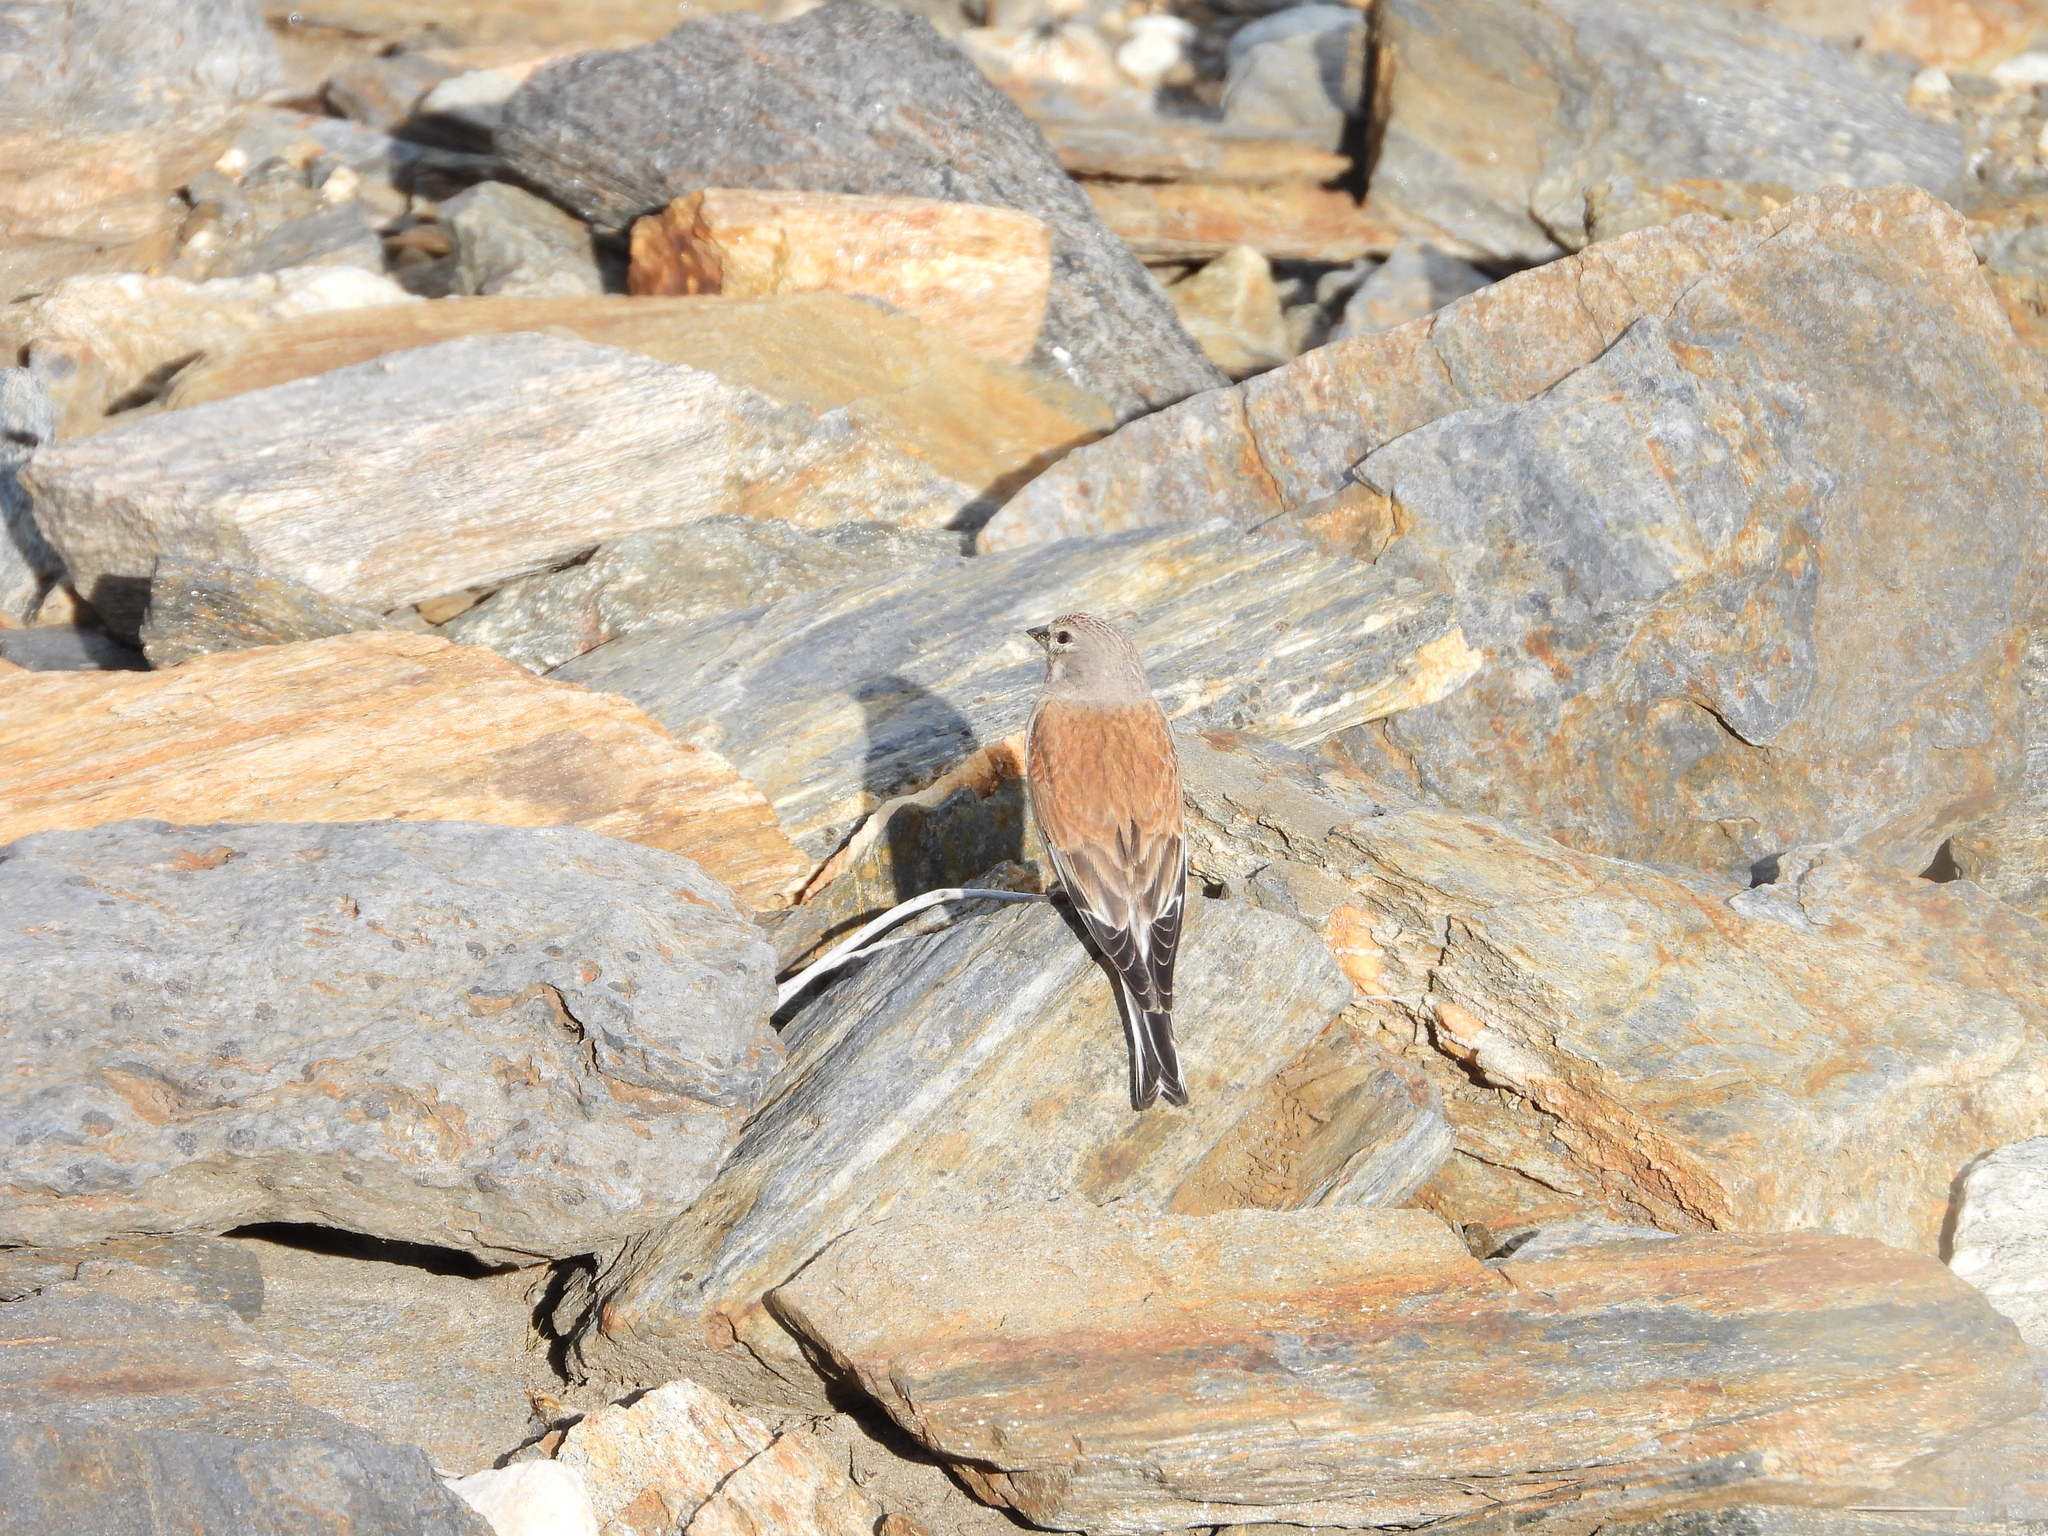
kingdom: Animalia
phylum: Chordata
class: Aves
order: Passeriformes
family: Fringillidae
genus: Linaria
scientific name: Linaria cannabina
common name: Common linnet
